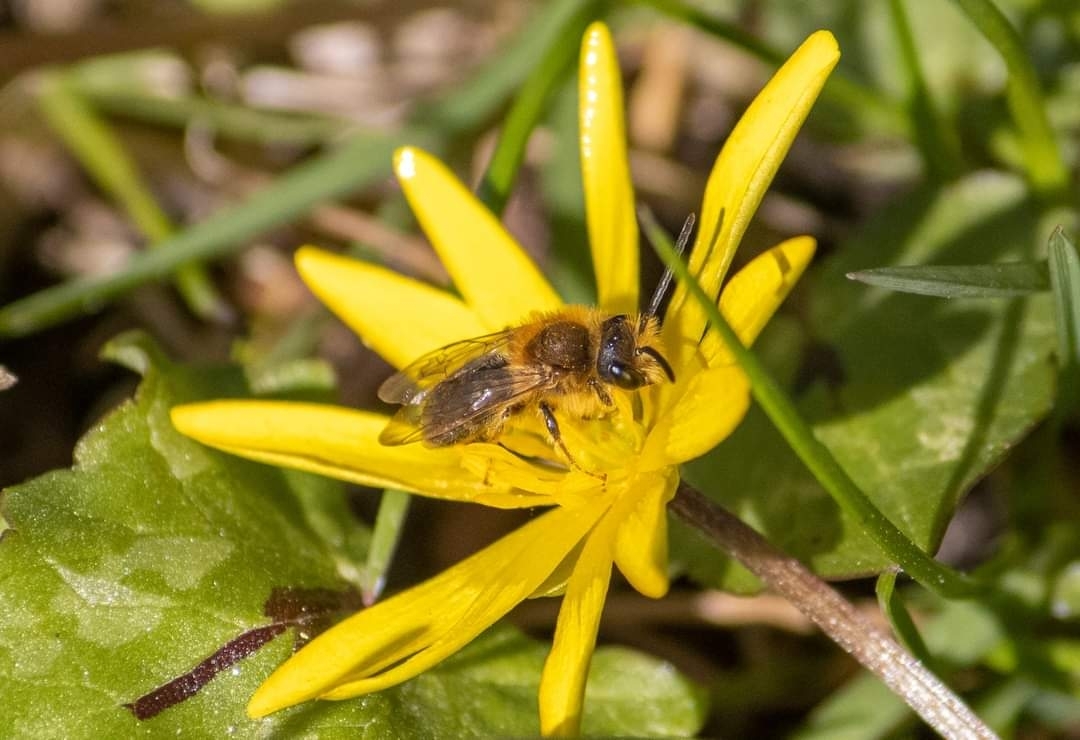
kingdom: Animalia
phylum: Arthropoda
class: Insecta
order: Hymenoptera
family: Andrenidae
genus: Andrena
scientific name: Andrena haemorrhoa
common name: Early mining bee
